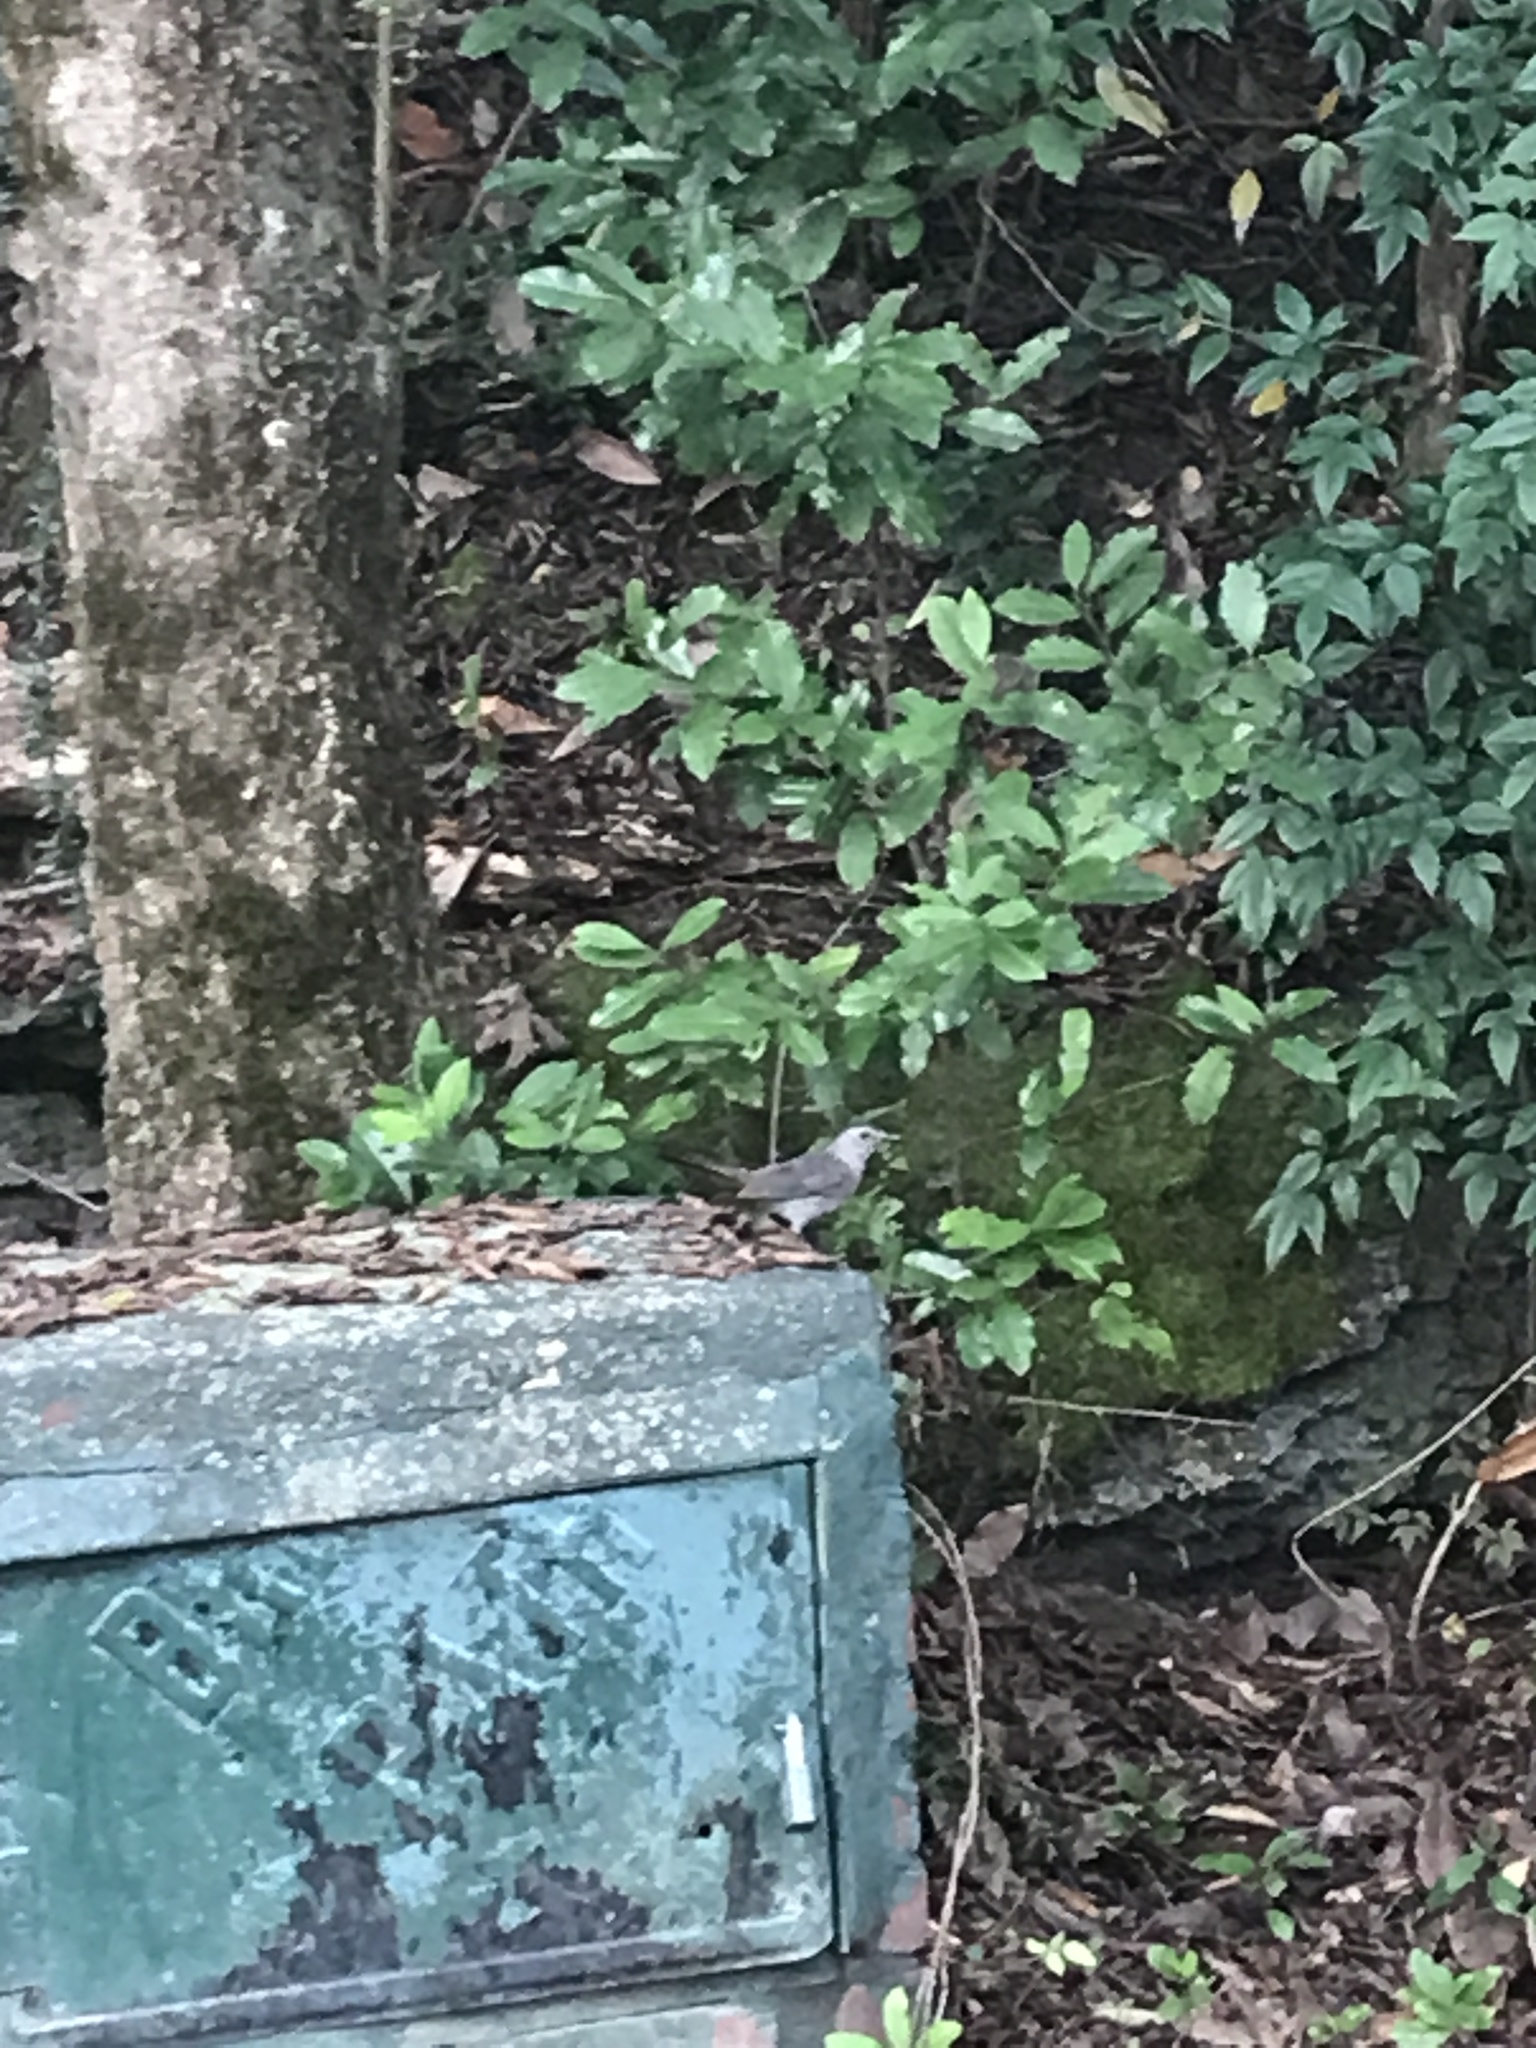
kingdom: Animalia
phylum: Chordata
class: Aves
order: Passeriformes
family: Mimidae
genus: Dumetella
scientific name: Dumetella carolinensis
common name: Gray catbird
